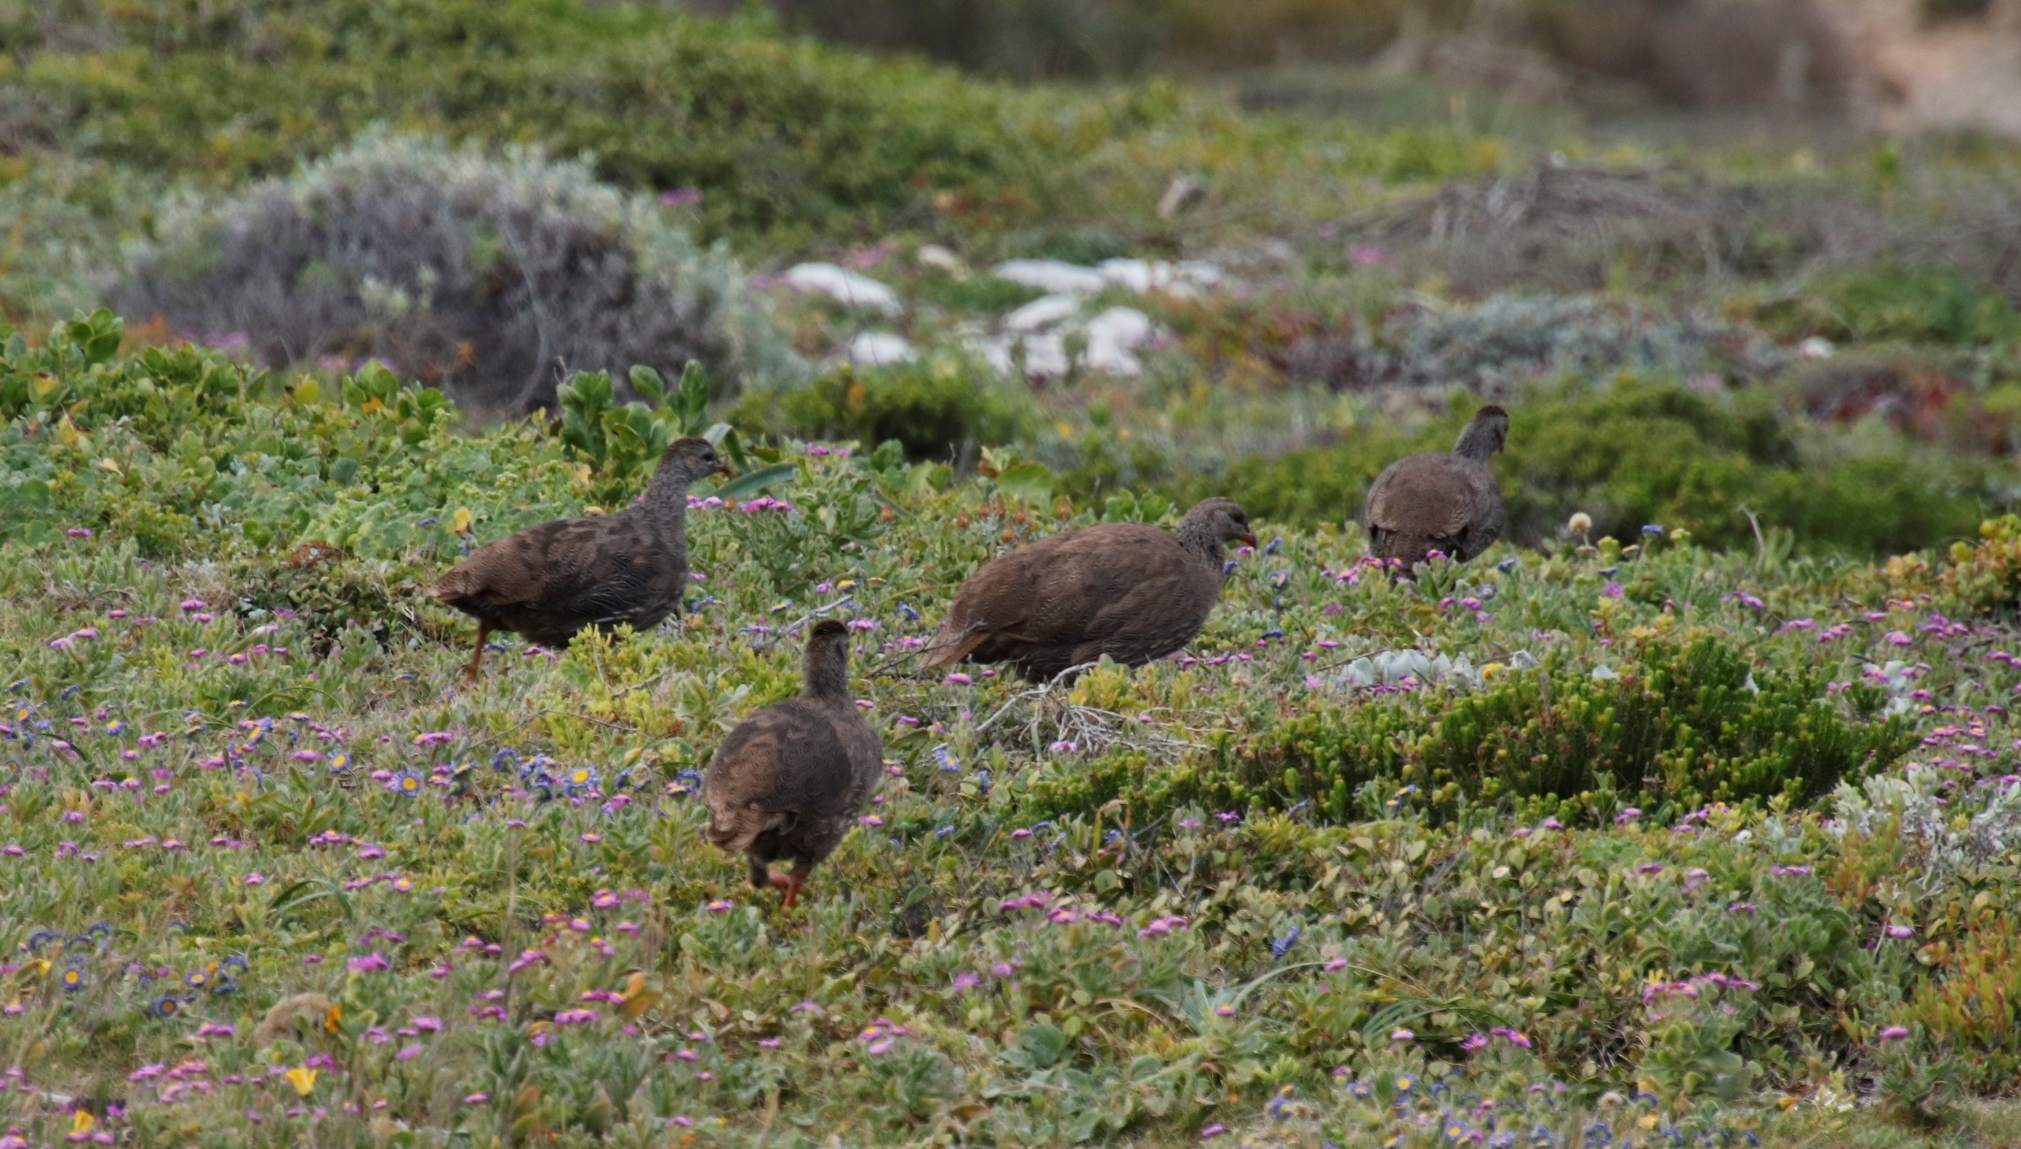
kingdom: Animalia
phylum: Chordata
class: Aves
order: Galliformes
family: Phasianidae
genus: Pternistis
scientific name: Pternistis capensis
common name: Cape spurfowl
